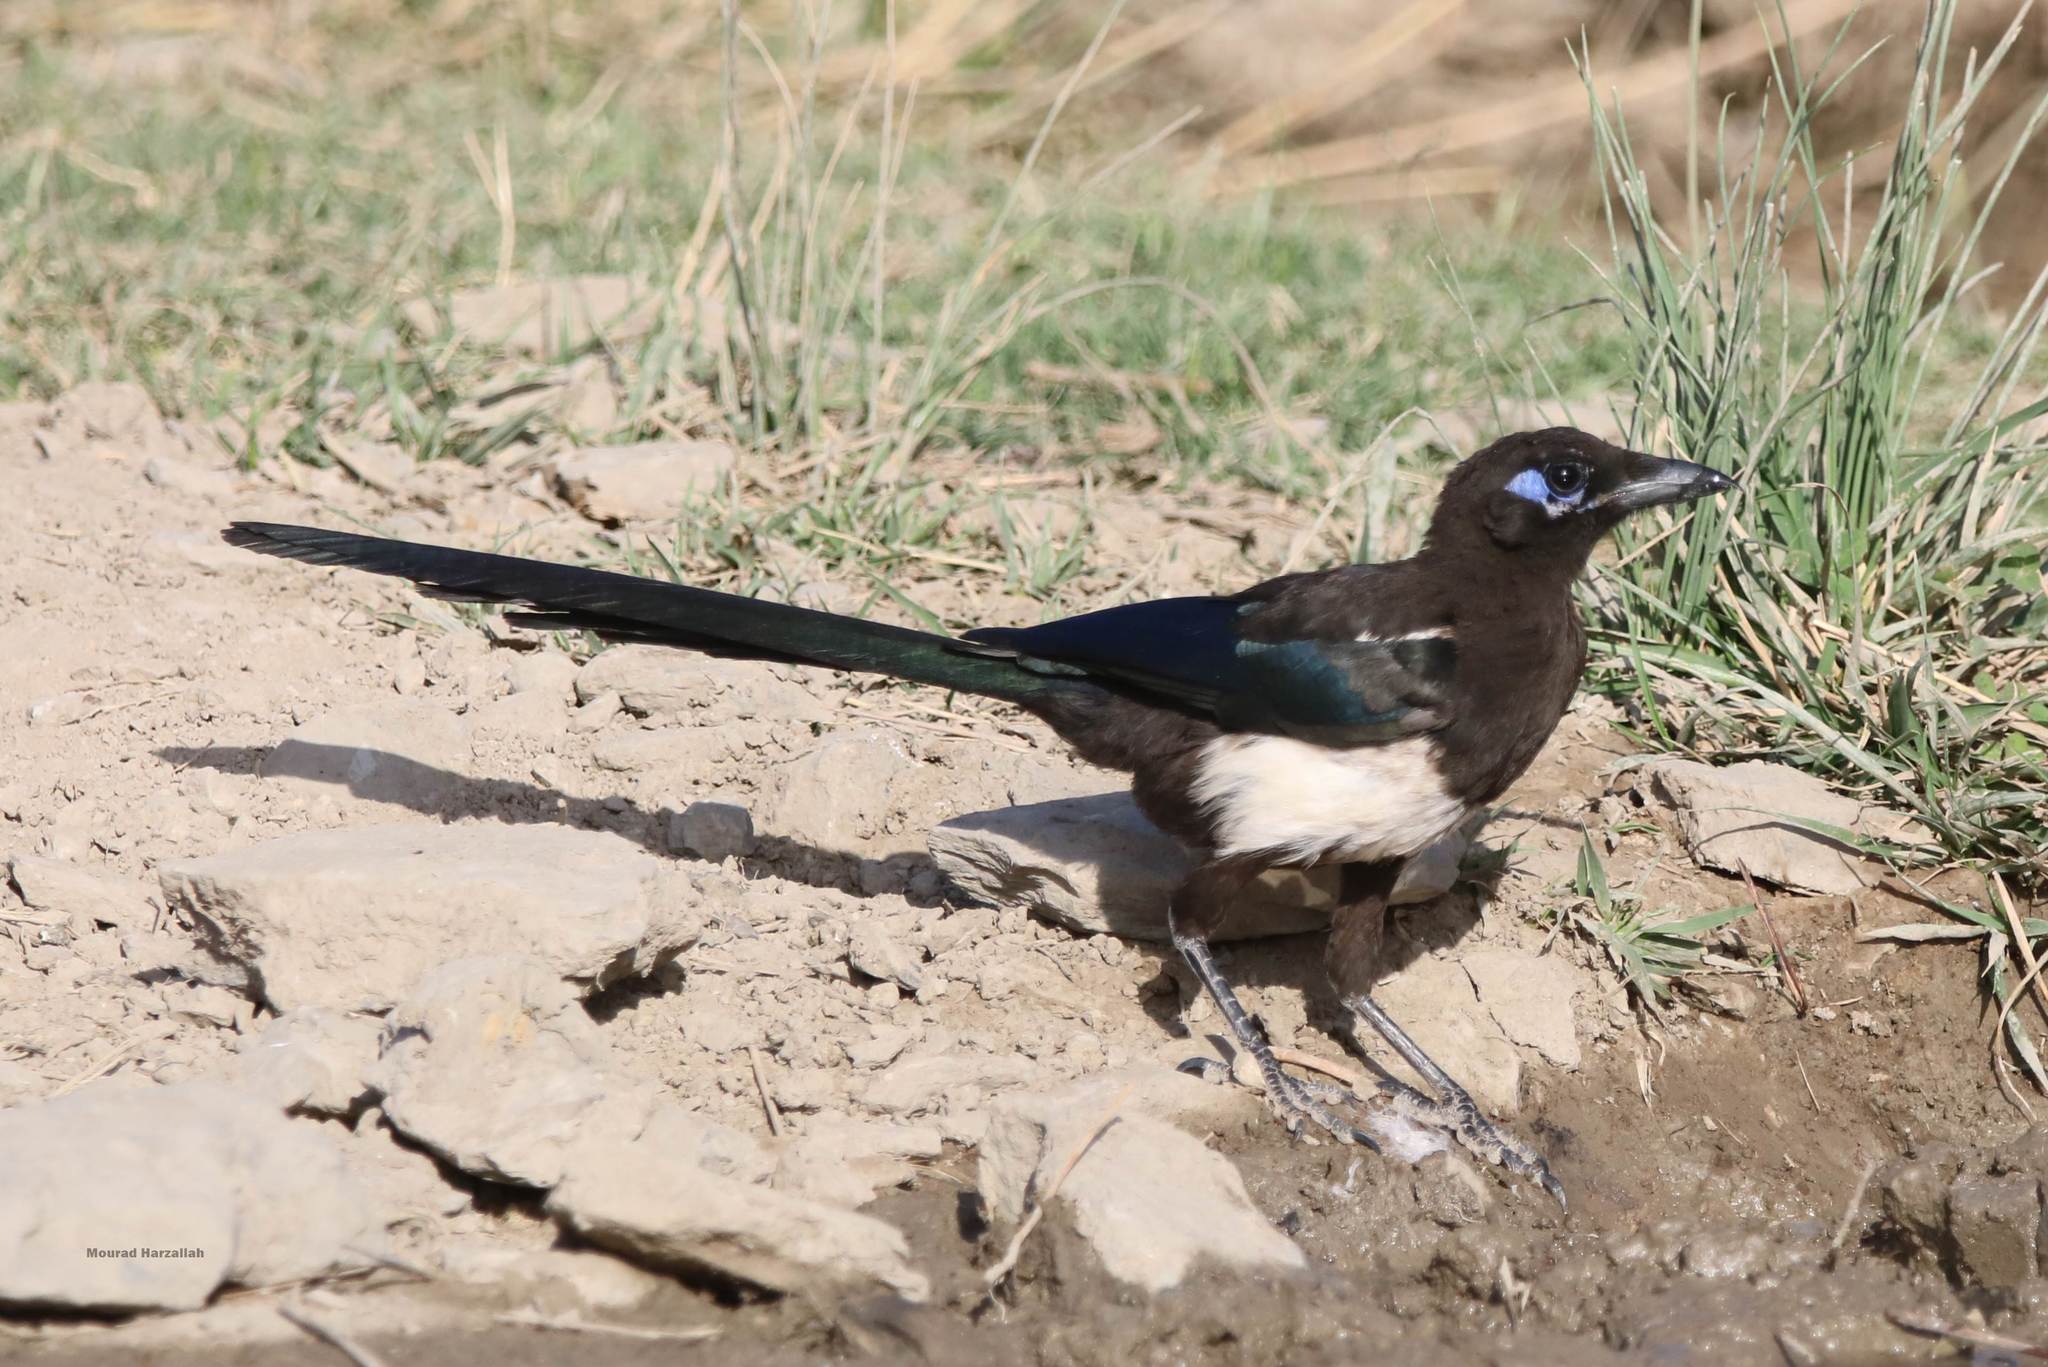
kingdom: Animalia
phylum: Chordata
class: Aves
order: Passeriformes
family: Corvidae
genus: Pica
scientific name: Pica mauritanica
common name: Maghreb magpie
